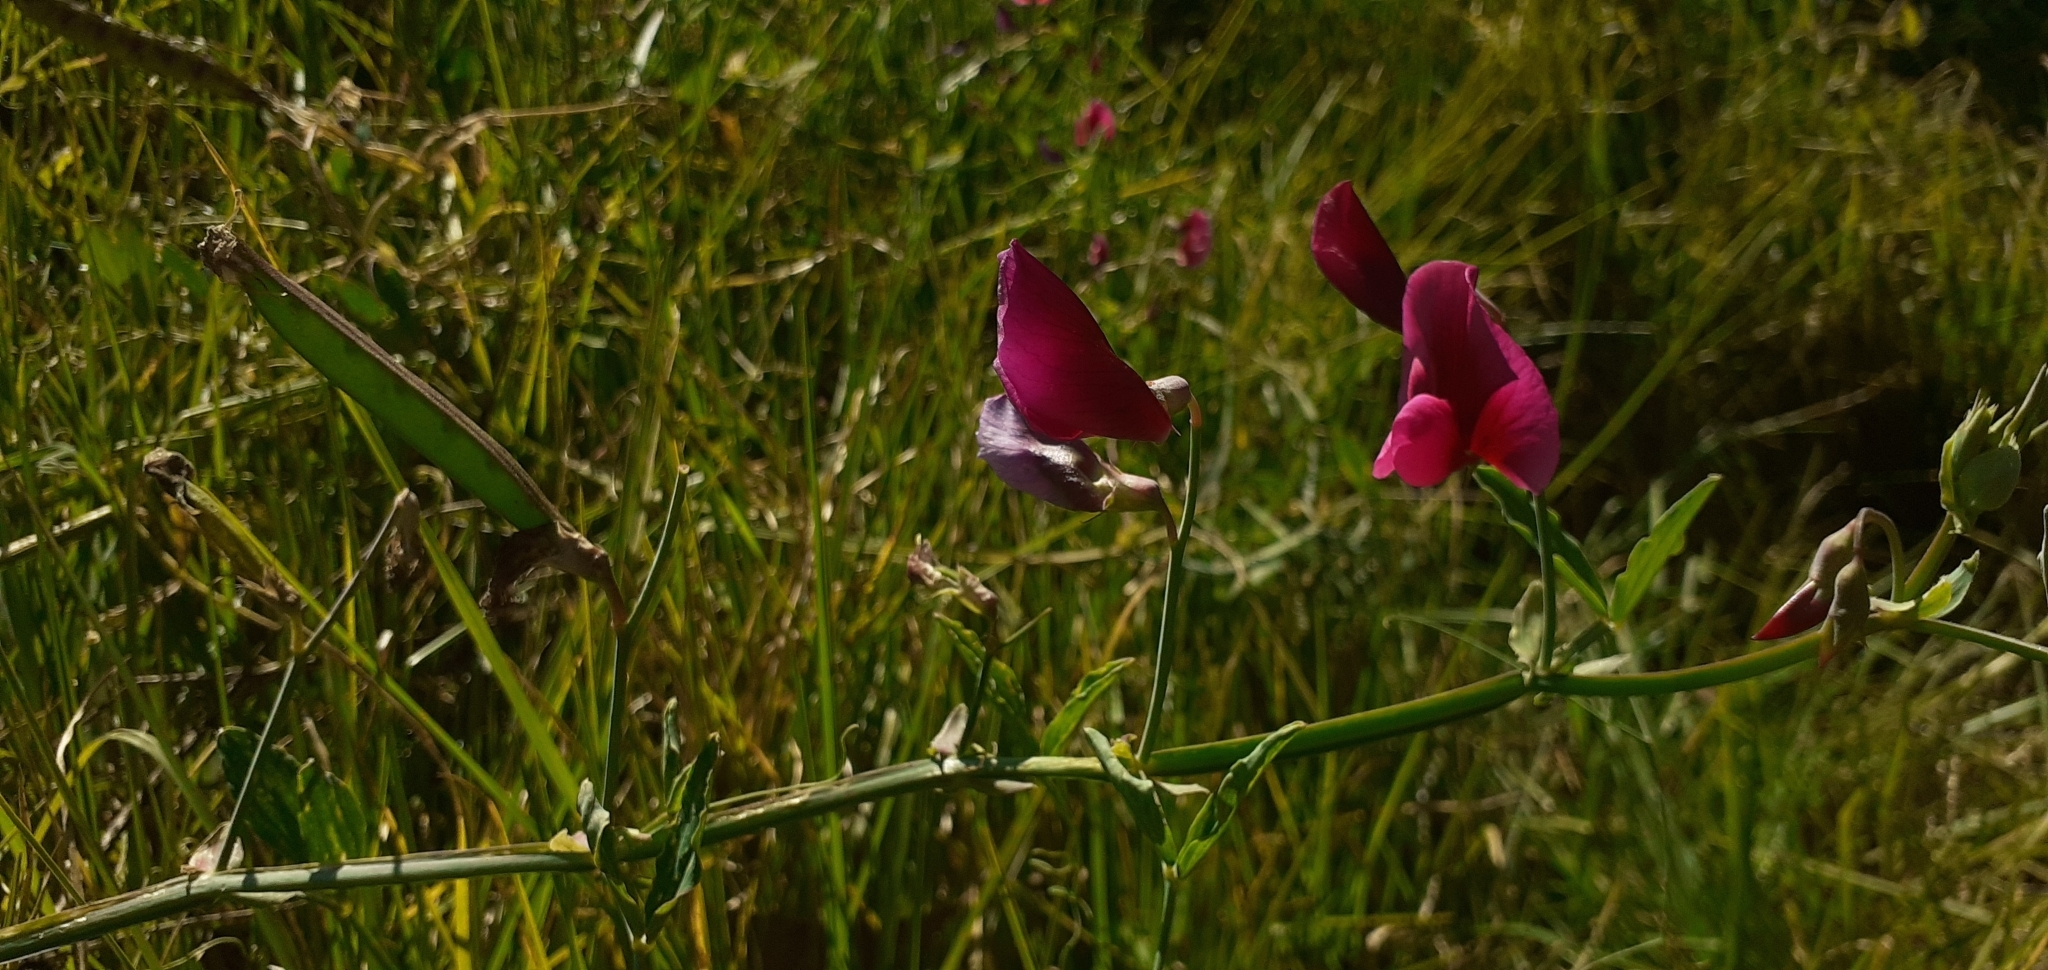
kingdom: Plantae
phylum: Tracheophyta
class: Magnoliopsida
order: Fabales
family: Fabaceae
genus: Lathyrus
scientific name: Lathyrus tingitanus
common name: Tangier pea
